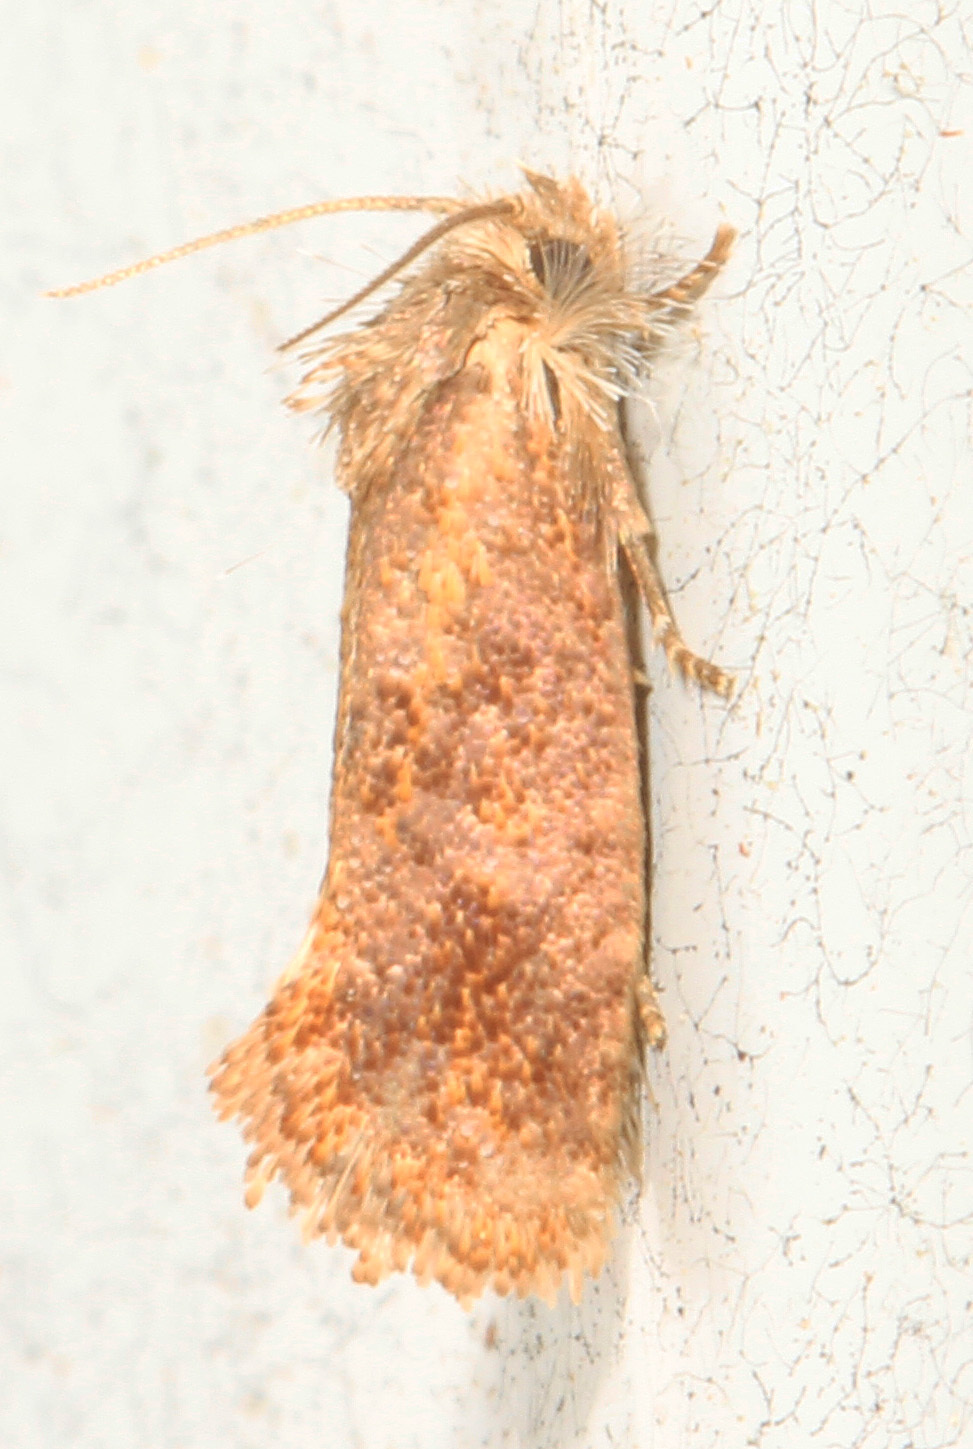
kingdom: Animalia
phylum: Arthropoda
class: Insecta
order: Lepidoptera
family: Tineidae
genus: Acrolophus
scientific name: Acrolophus panamae
